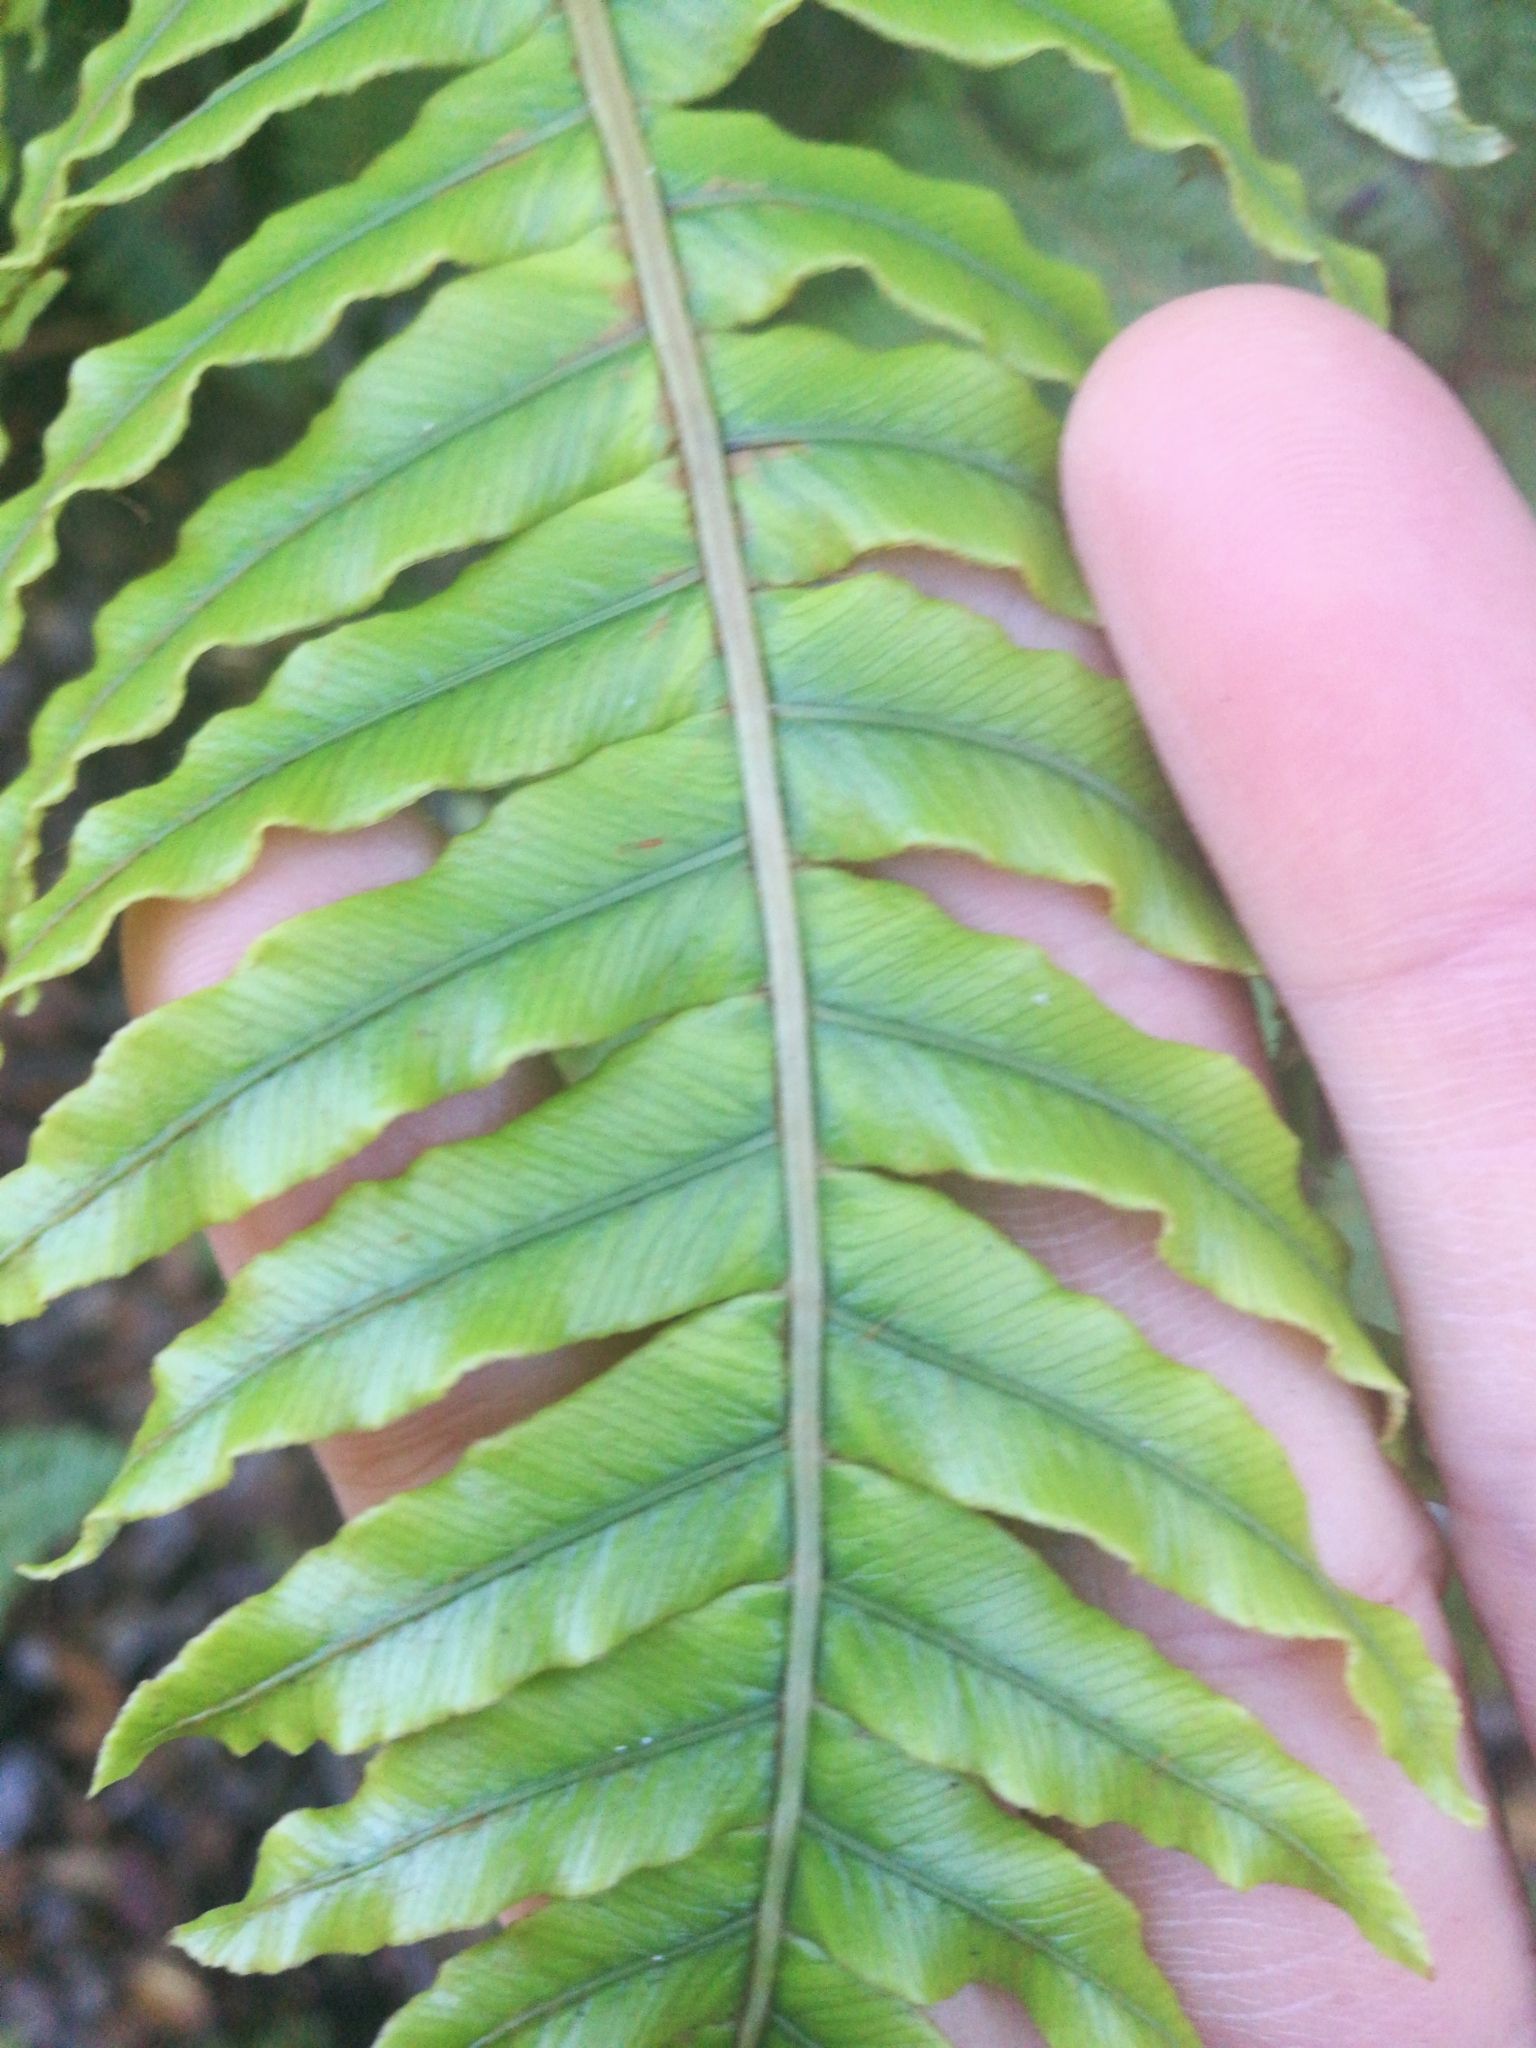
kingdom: Plantae
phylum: Tracheophyta
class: Polypodiopsida
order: Polypodiales
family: Blechnaceae
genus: Lomaria
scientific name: Lomaria discolor
